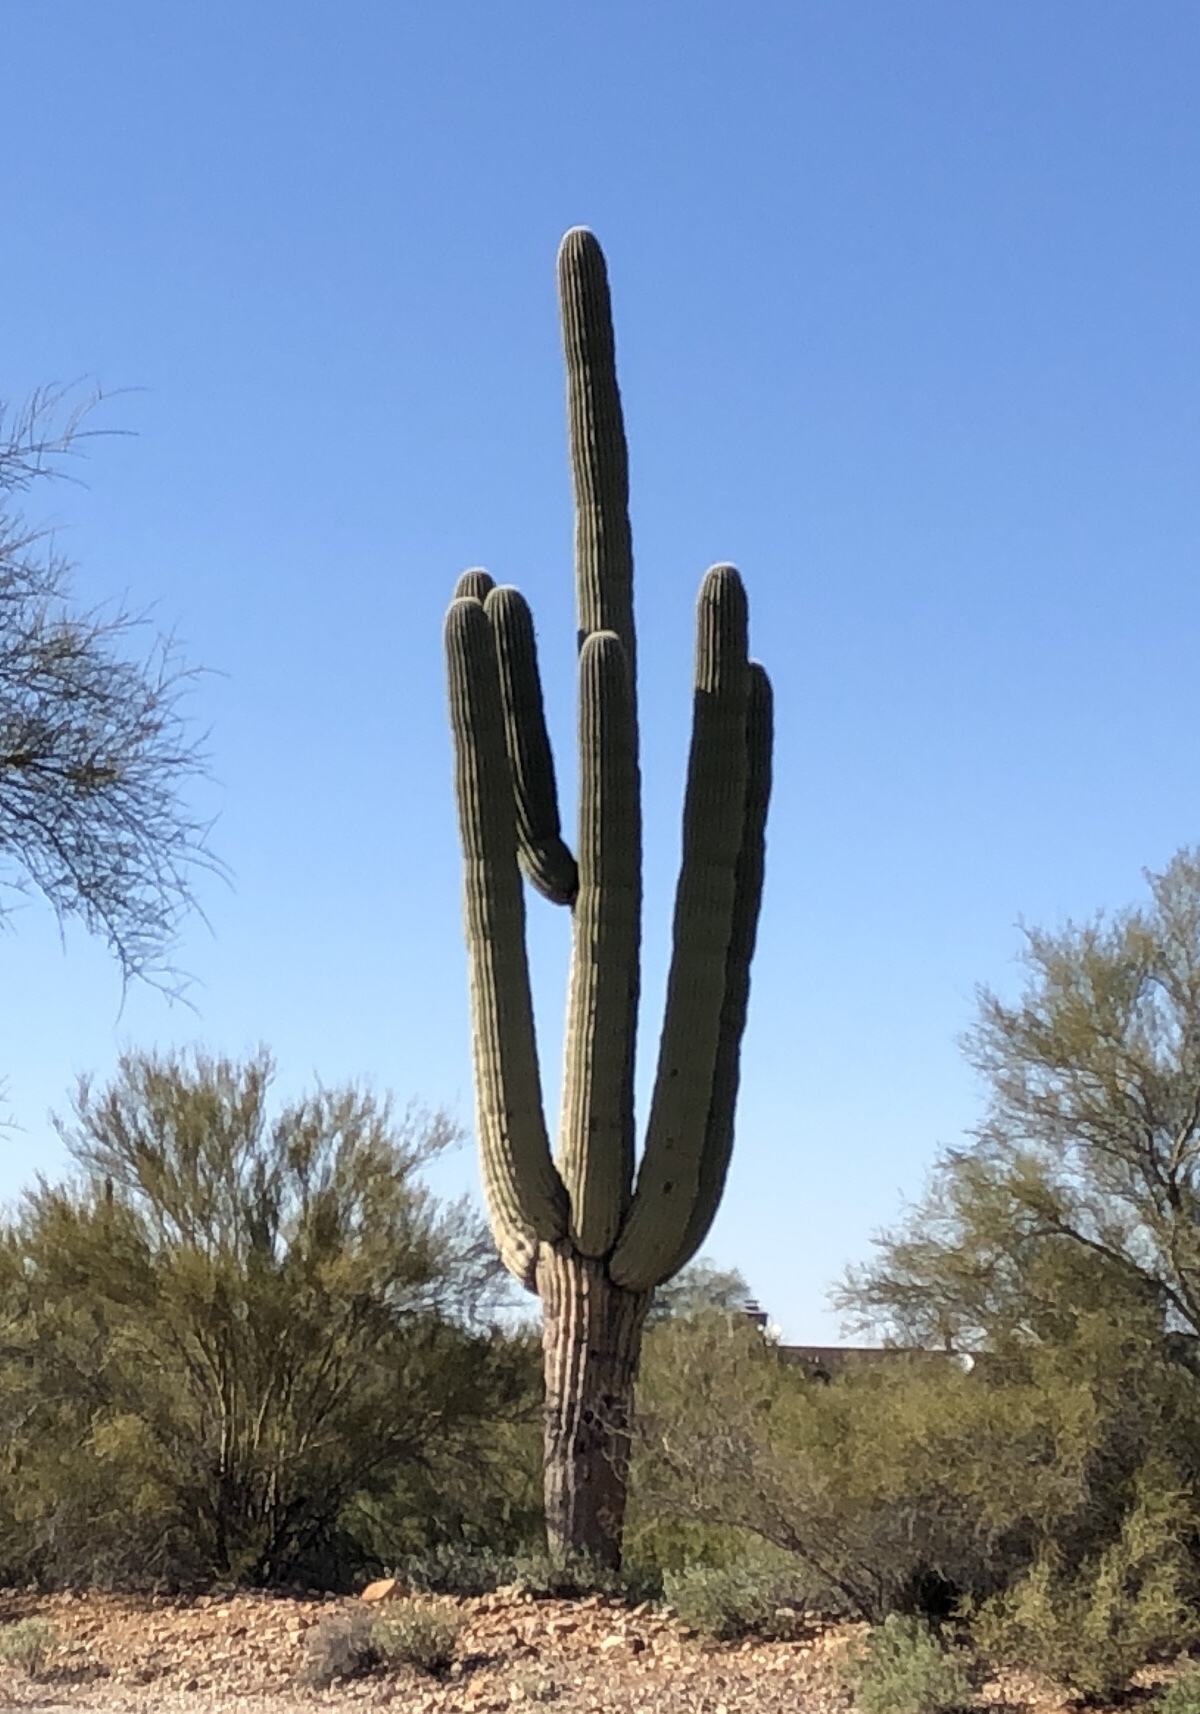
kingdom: Plantae
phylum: Tracheophyta
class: Magnoliopsida
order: Caryophyllales
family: Cactaceae
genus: Carnegiea
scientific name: Carnegiea gigantea
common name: Saguaro
